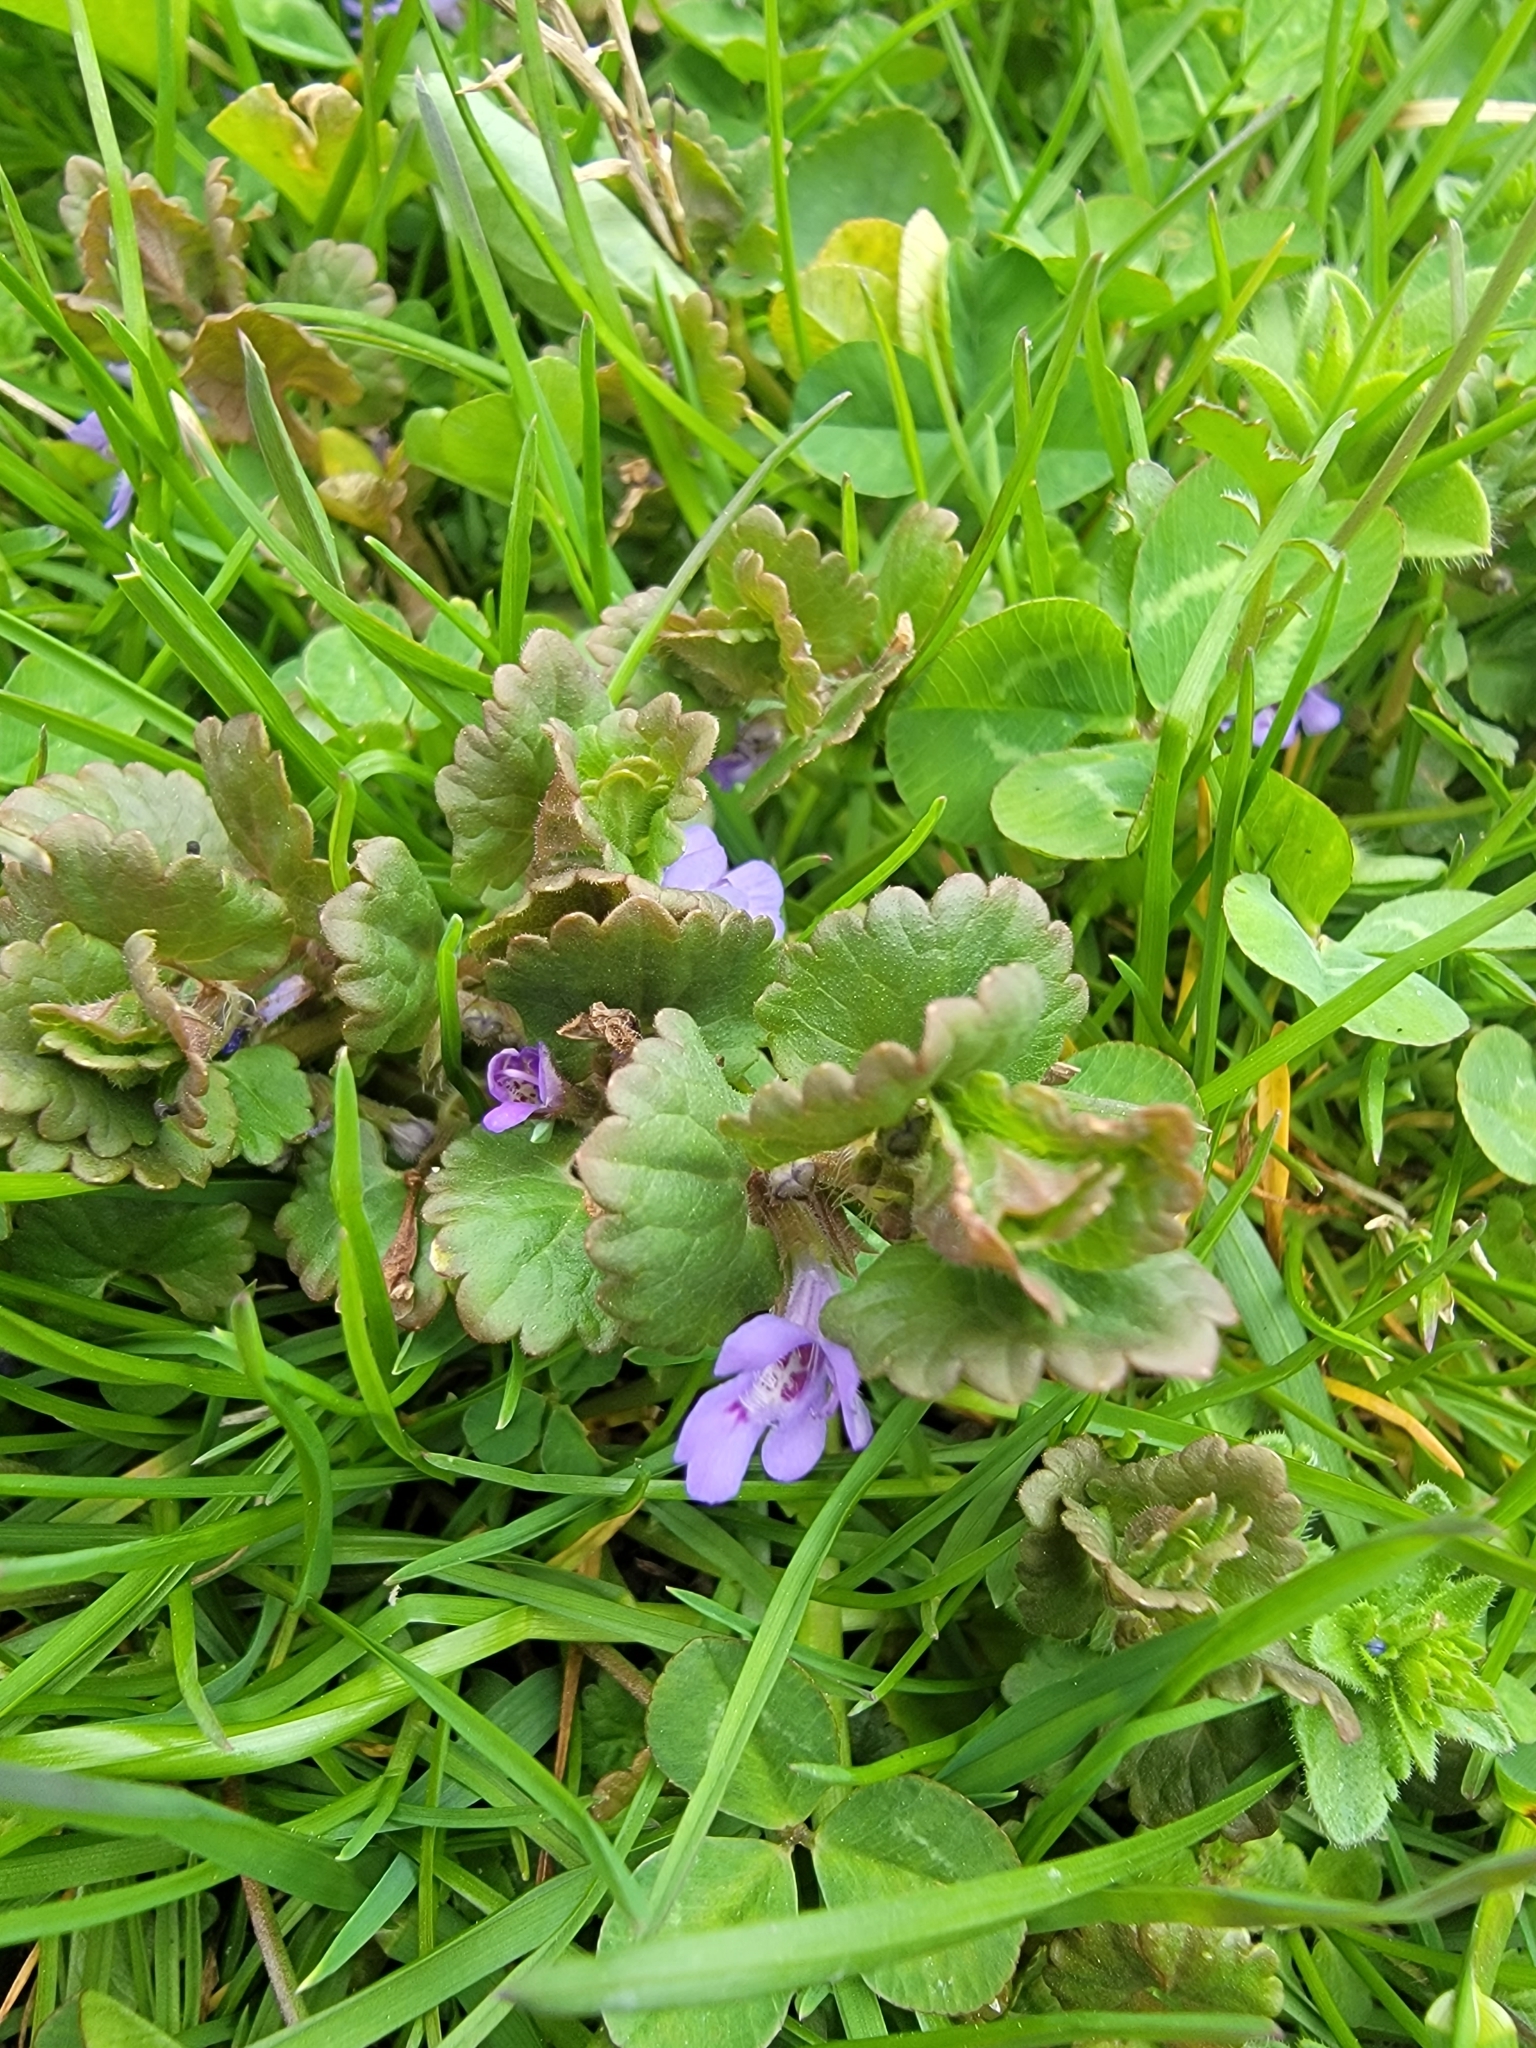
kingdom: Plantae
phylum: Tracheophyta
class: Magnoliopsida
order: Lamiales
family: Lamiaceae
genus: Glechoma
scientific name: Glechoma hederacea
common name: Ground ivy
